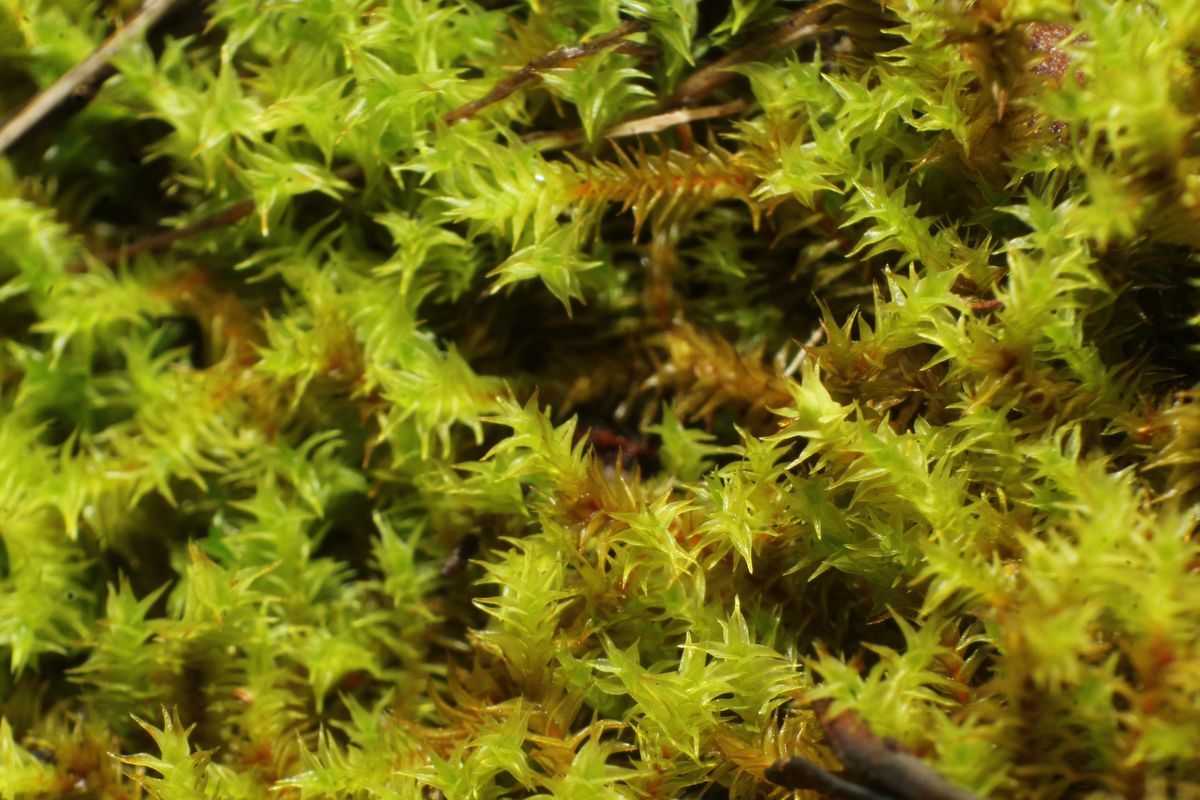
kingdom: Plantae
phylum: Bryophyta
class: Bryopsida
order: Pottiales
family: Pottiaceae
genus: Triquetrella
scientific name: Triquetrella papillata
